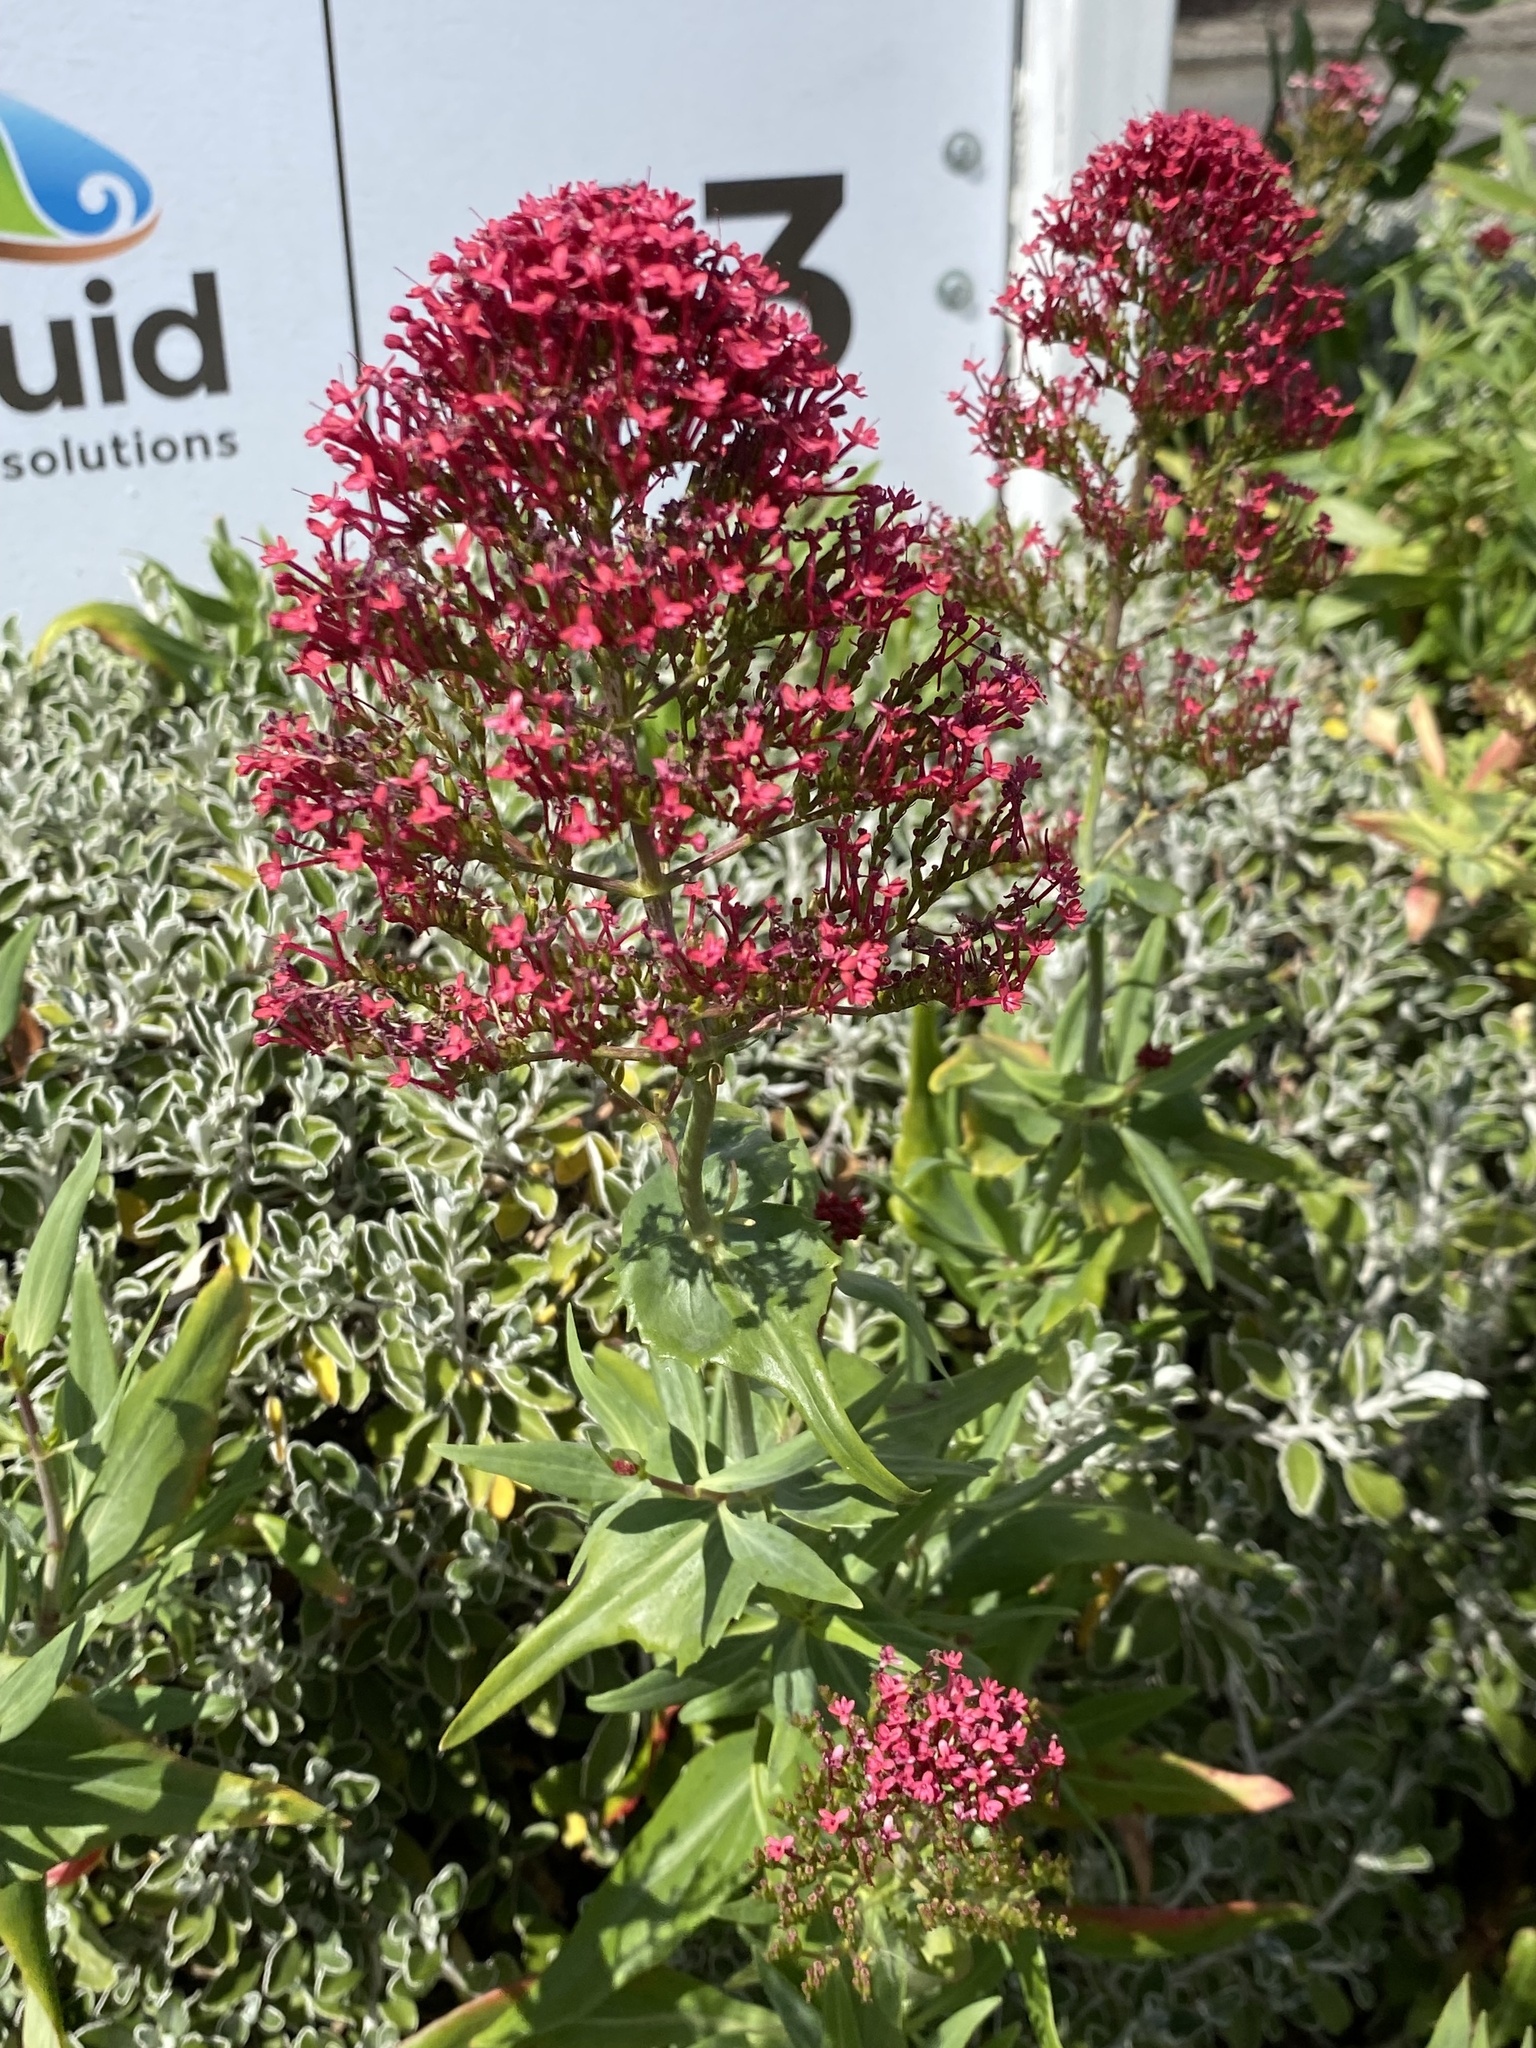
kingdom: Plantae
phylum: Tracheophyta
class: Magnoliopsida
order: Dipsacales
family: Caprifoliaceae
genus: Centranthus
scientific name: Centranthus ruber
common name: Red valerian
